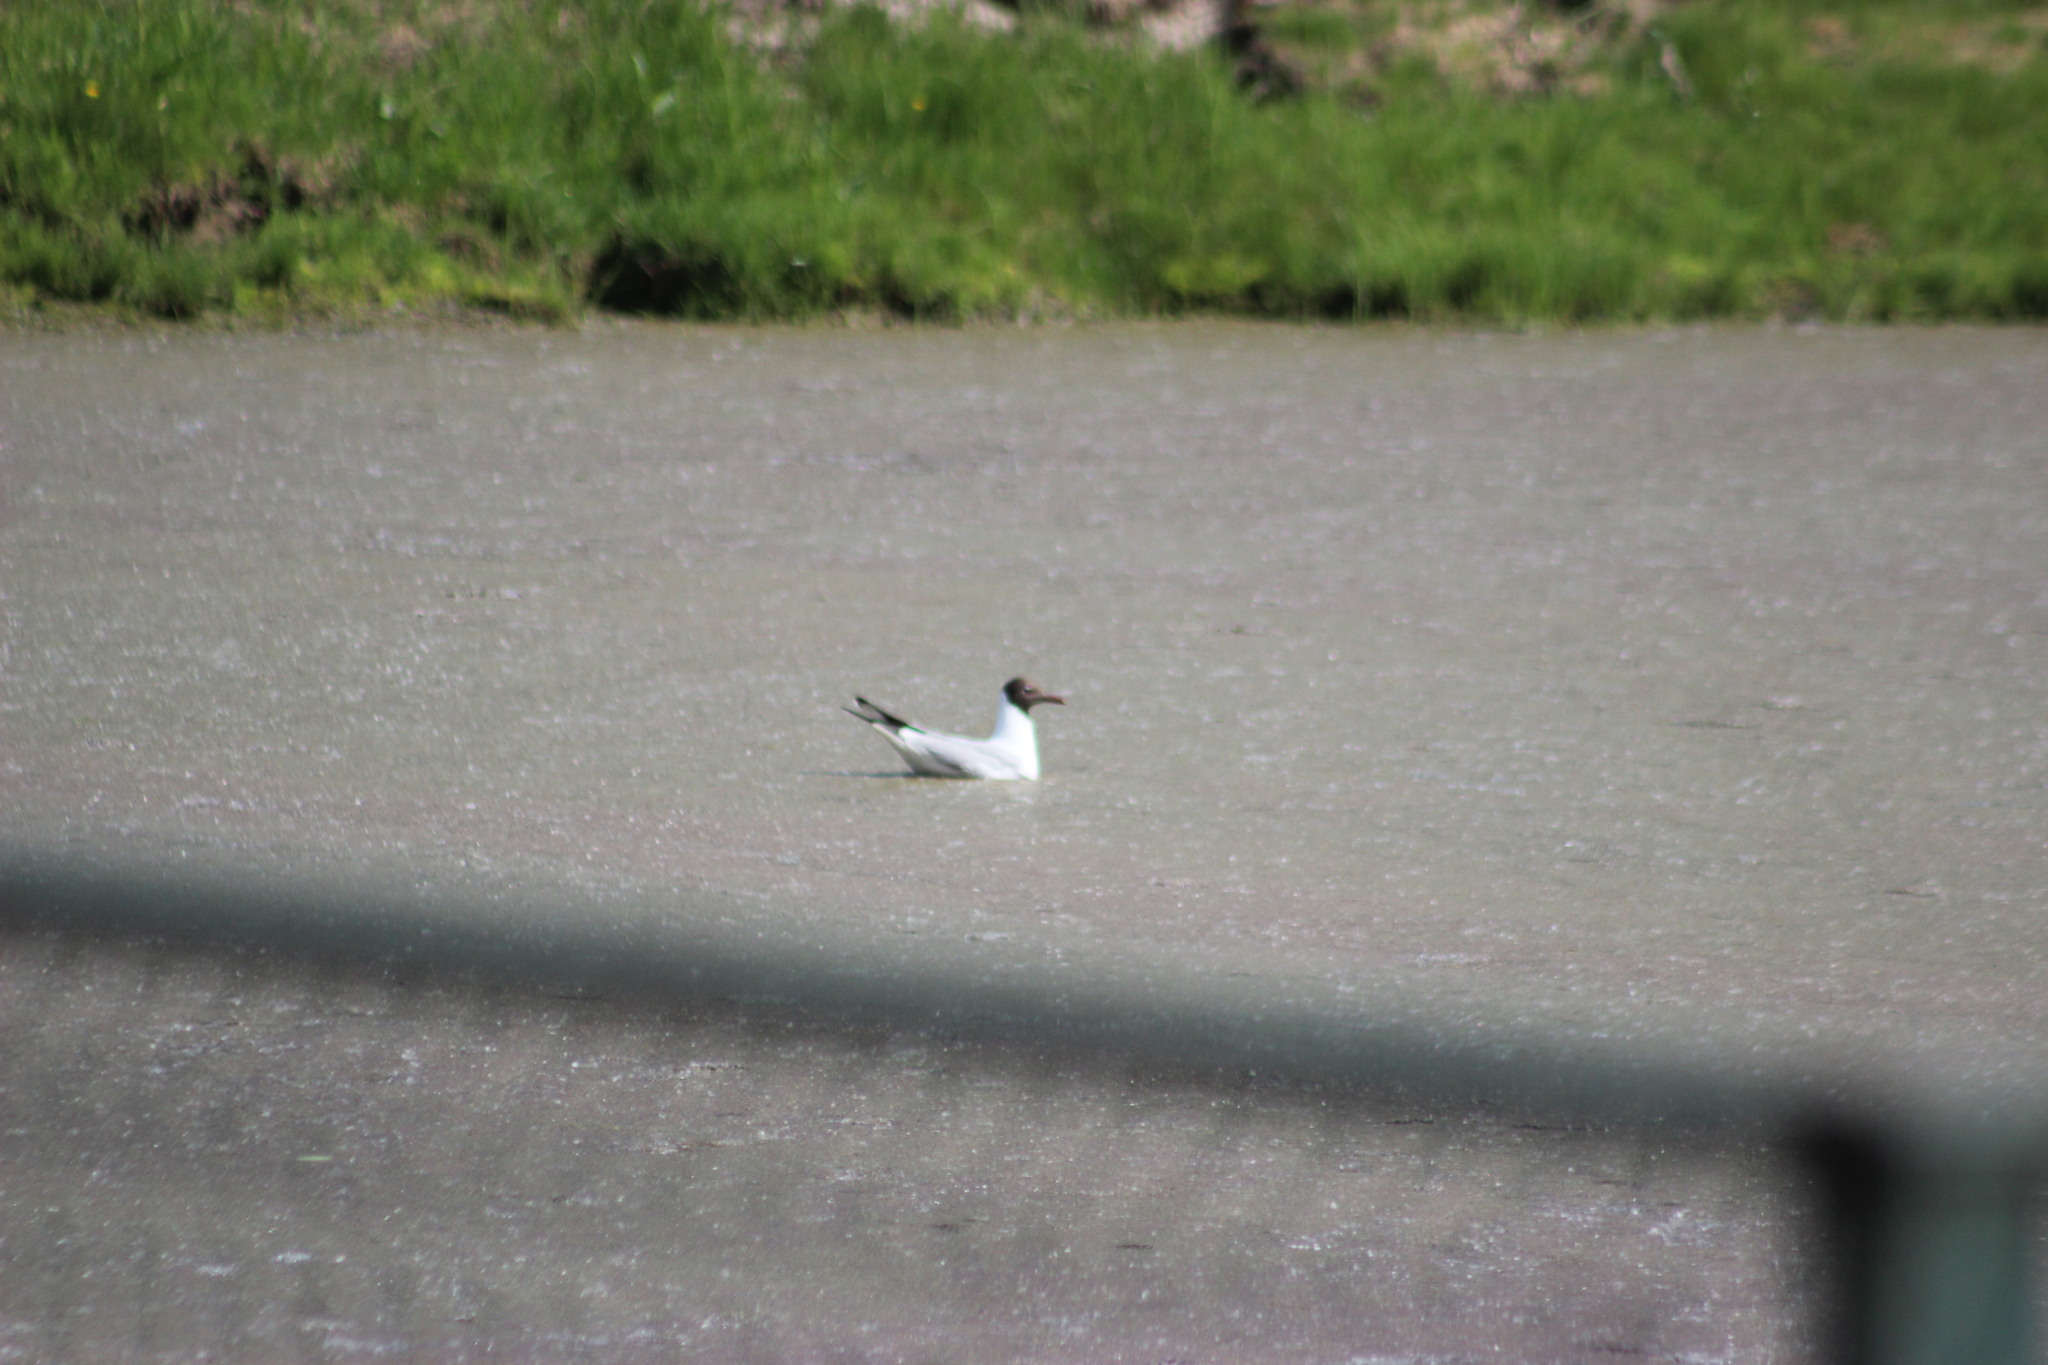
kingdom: Animalia
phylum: Chordata
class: Aves
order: Charadriiformes
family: Laridae
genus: Chroicocephalus
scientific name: Chroicocephalus ridibundus
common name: Black-headed gull
